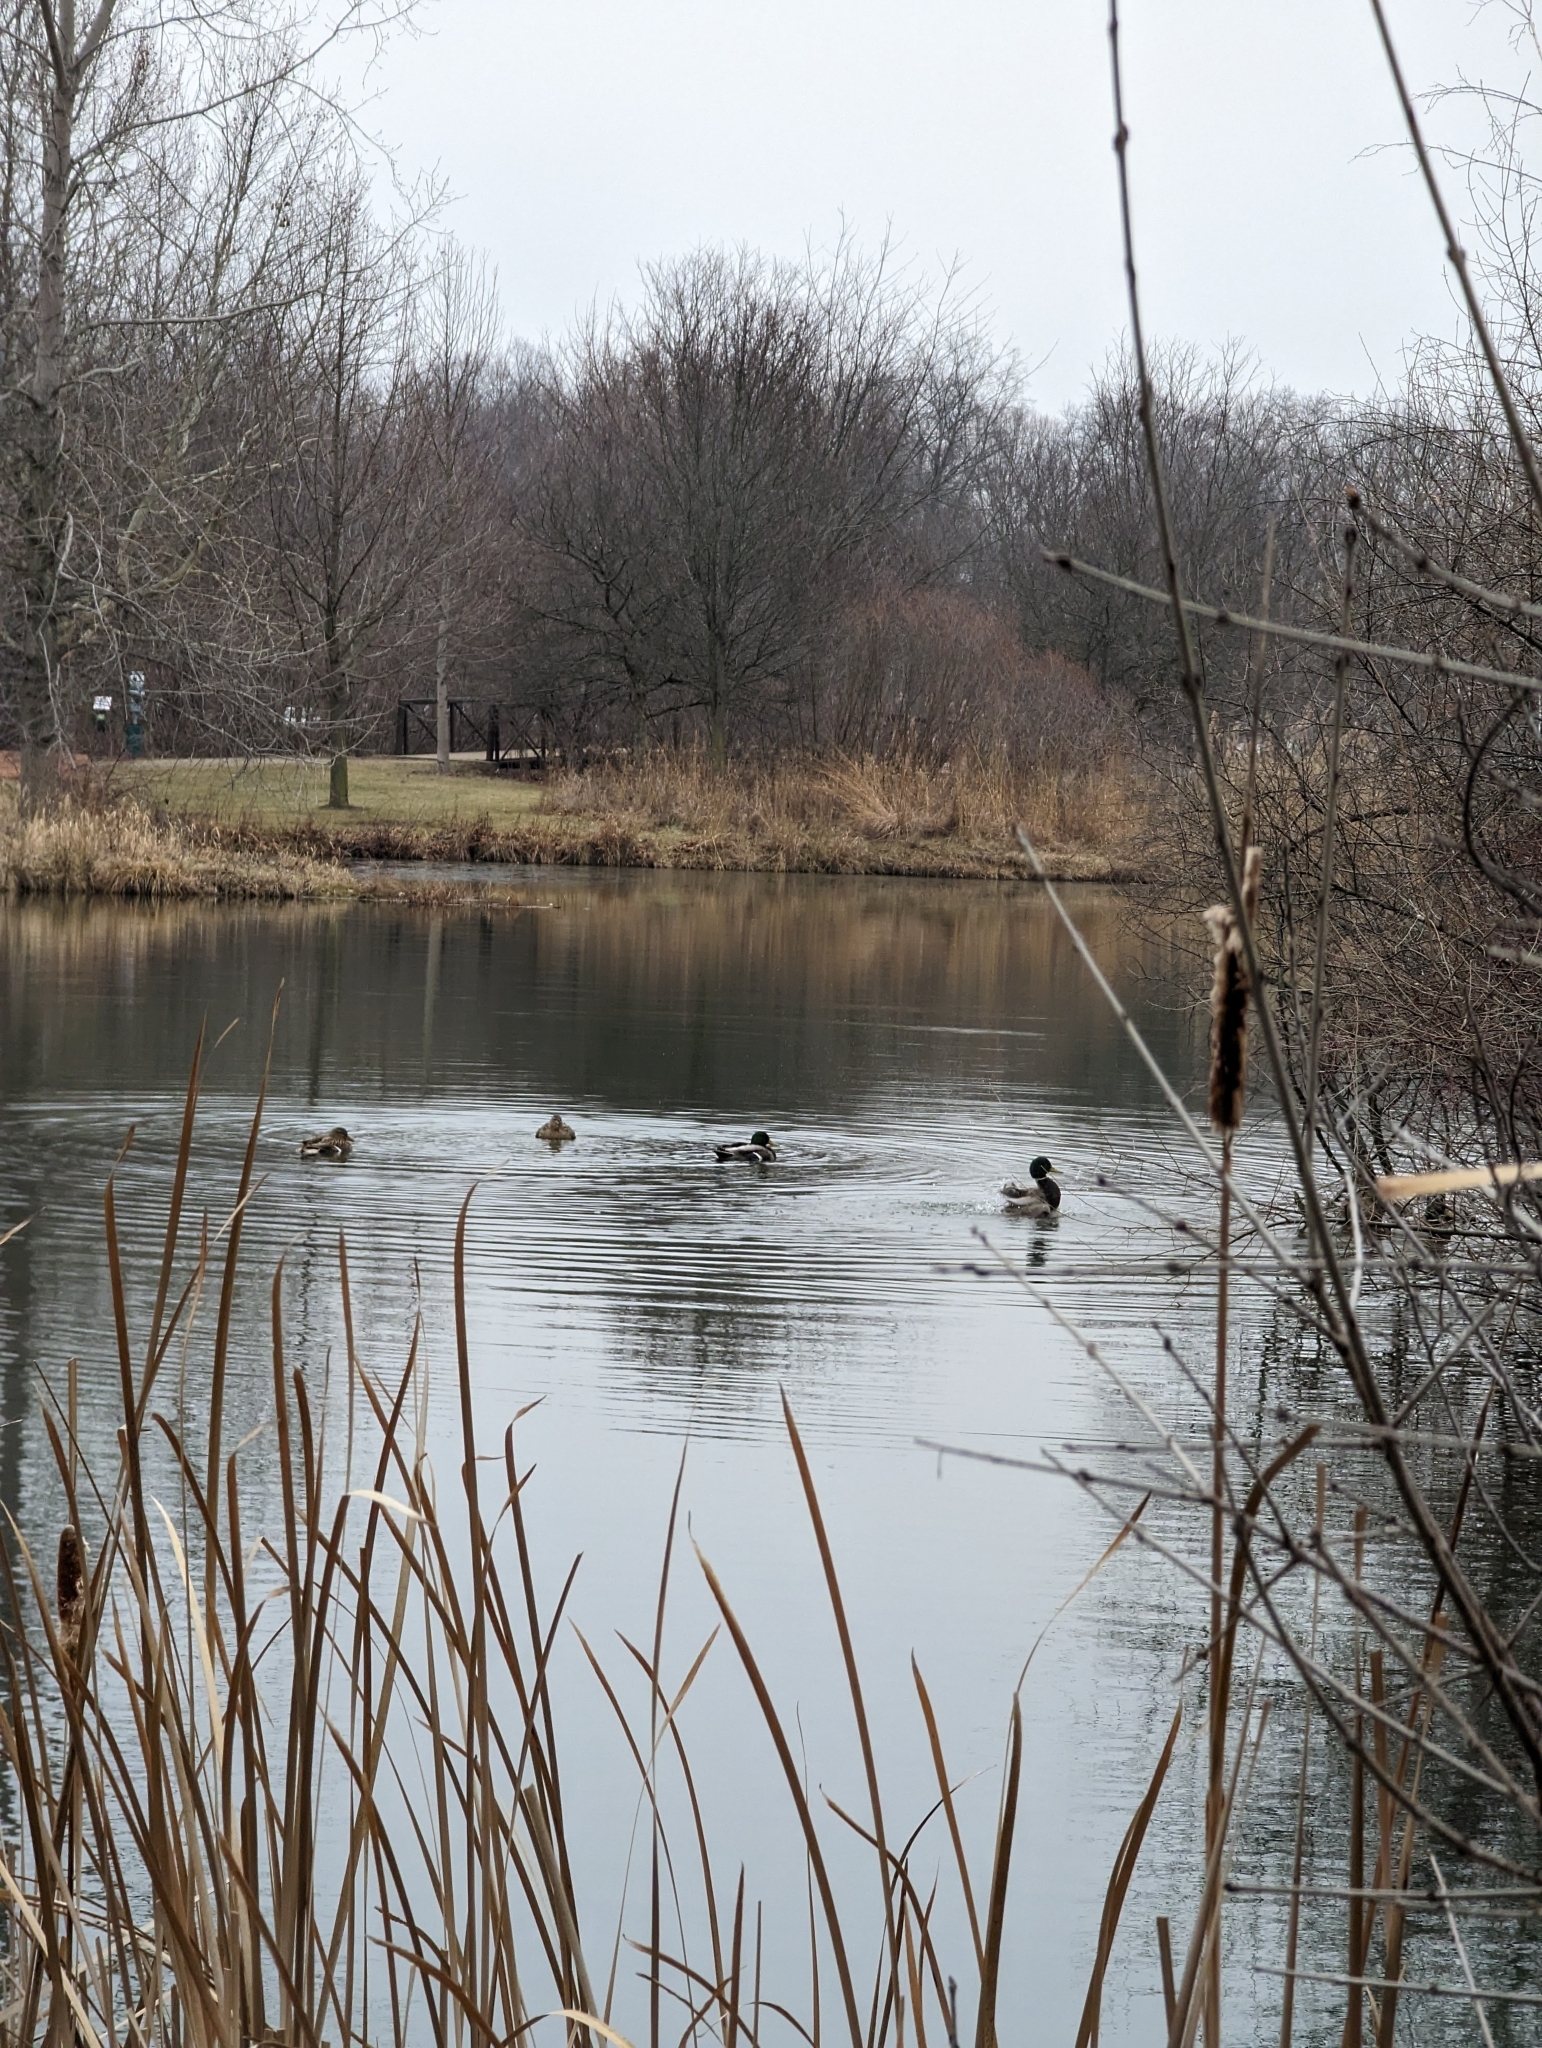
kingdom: Animalia
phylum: Chordata
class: Aves
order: Anseriformes
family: Anatidae
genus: Anas
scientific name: Anas platyrhynchos
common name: Mallard
